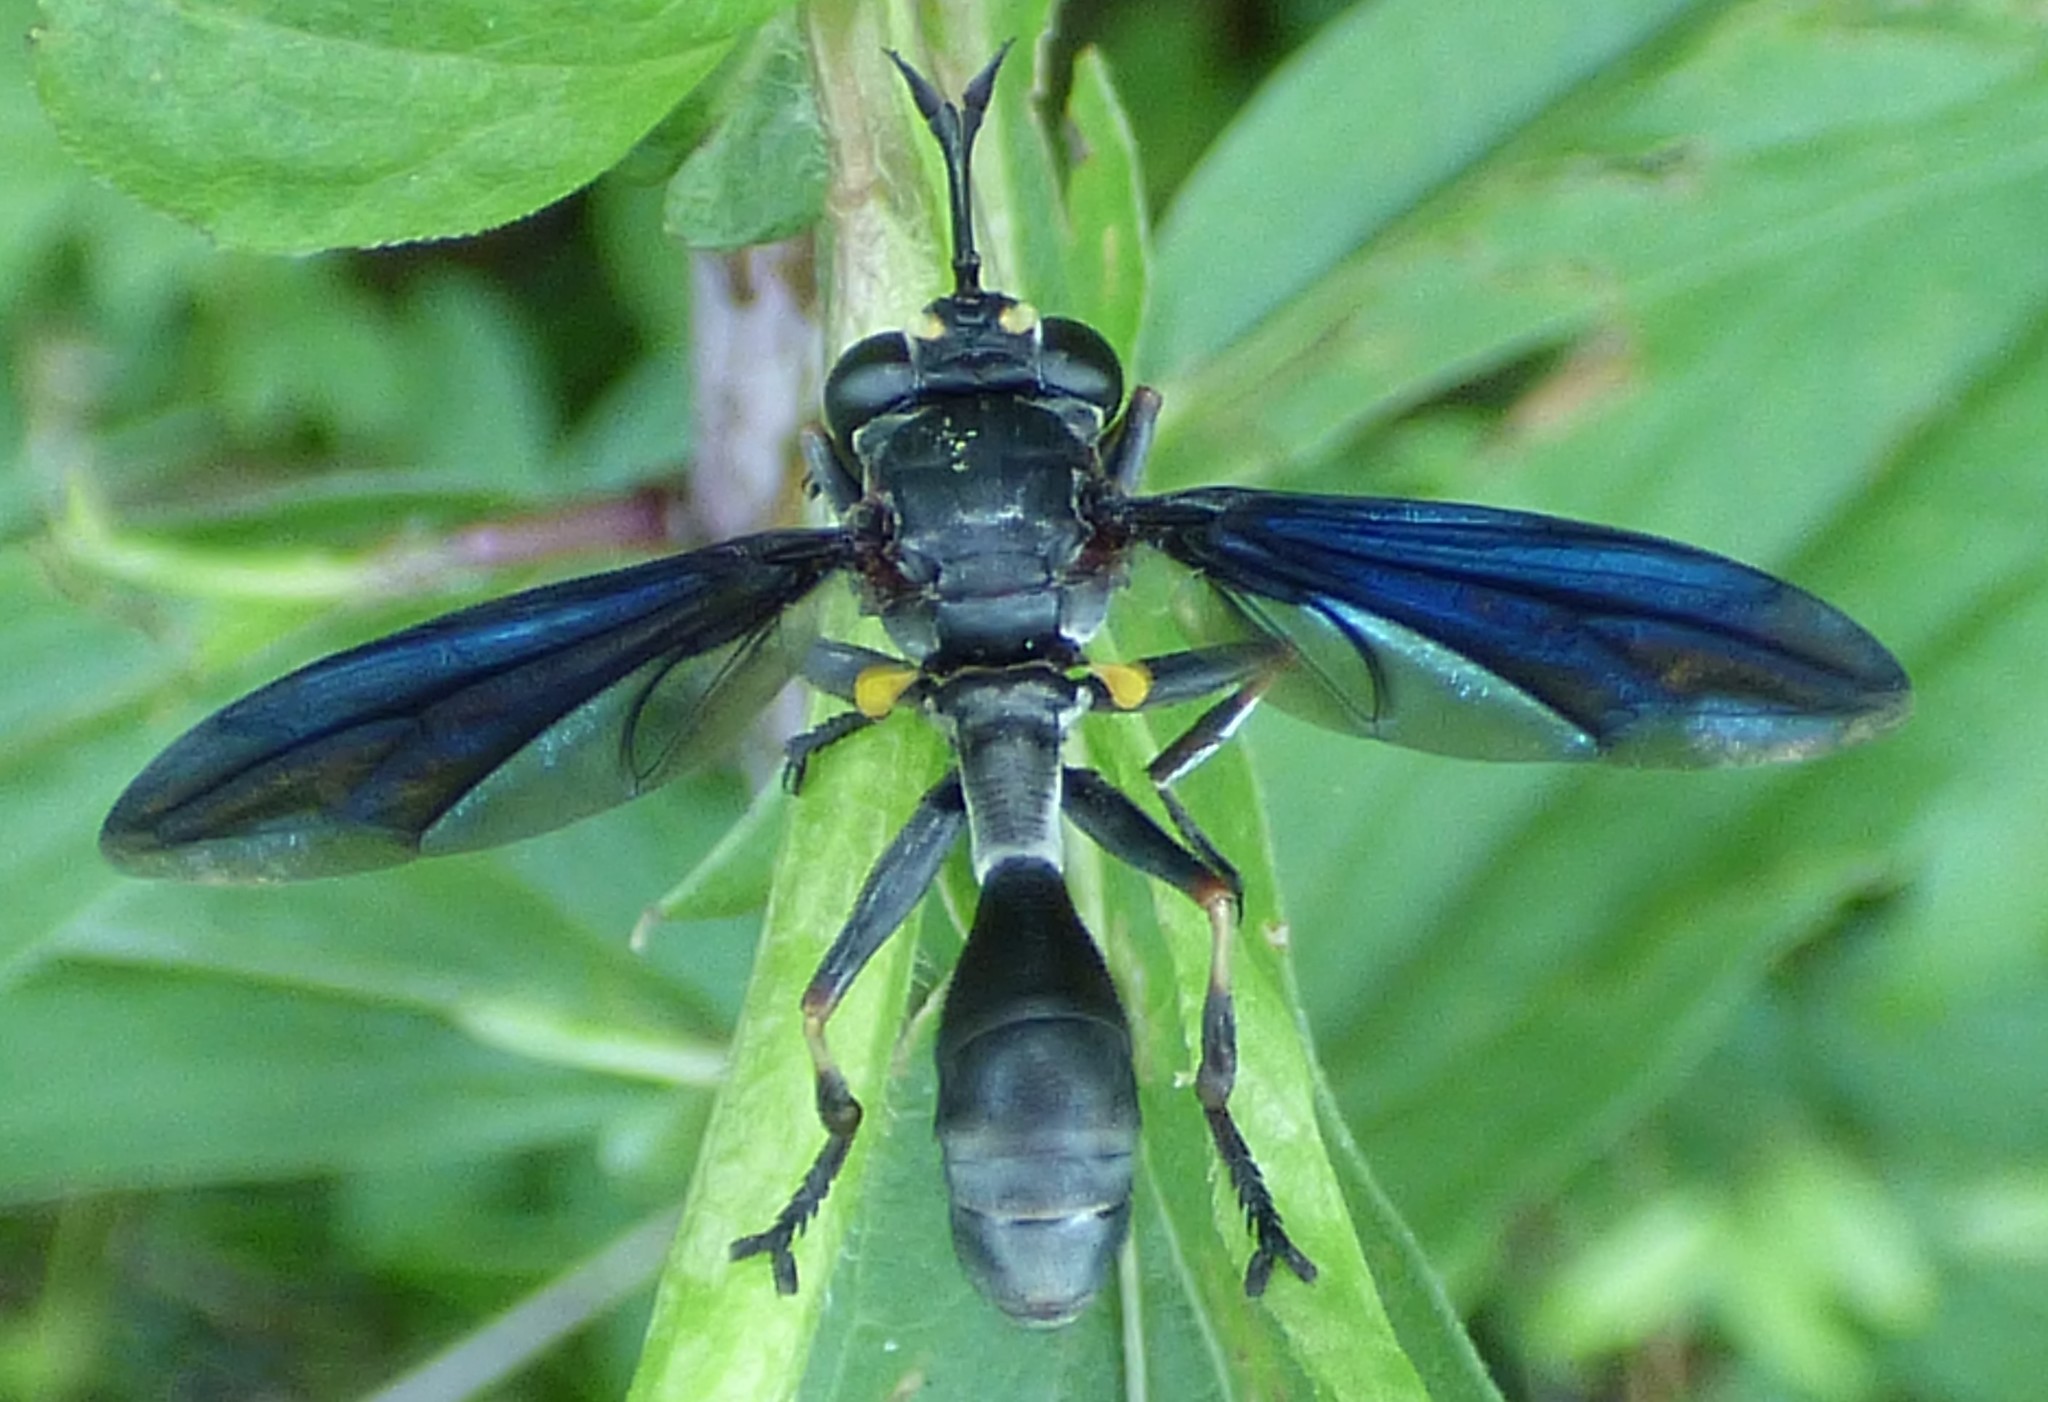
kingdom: Animalia
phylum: Arthropoda
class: Insecta
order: Diptera
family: Conopidae
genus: Physocephala
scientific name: Physocephala floridana
